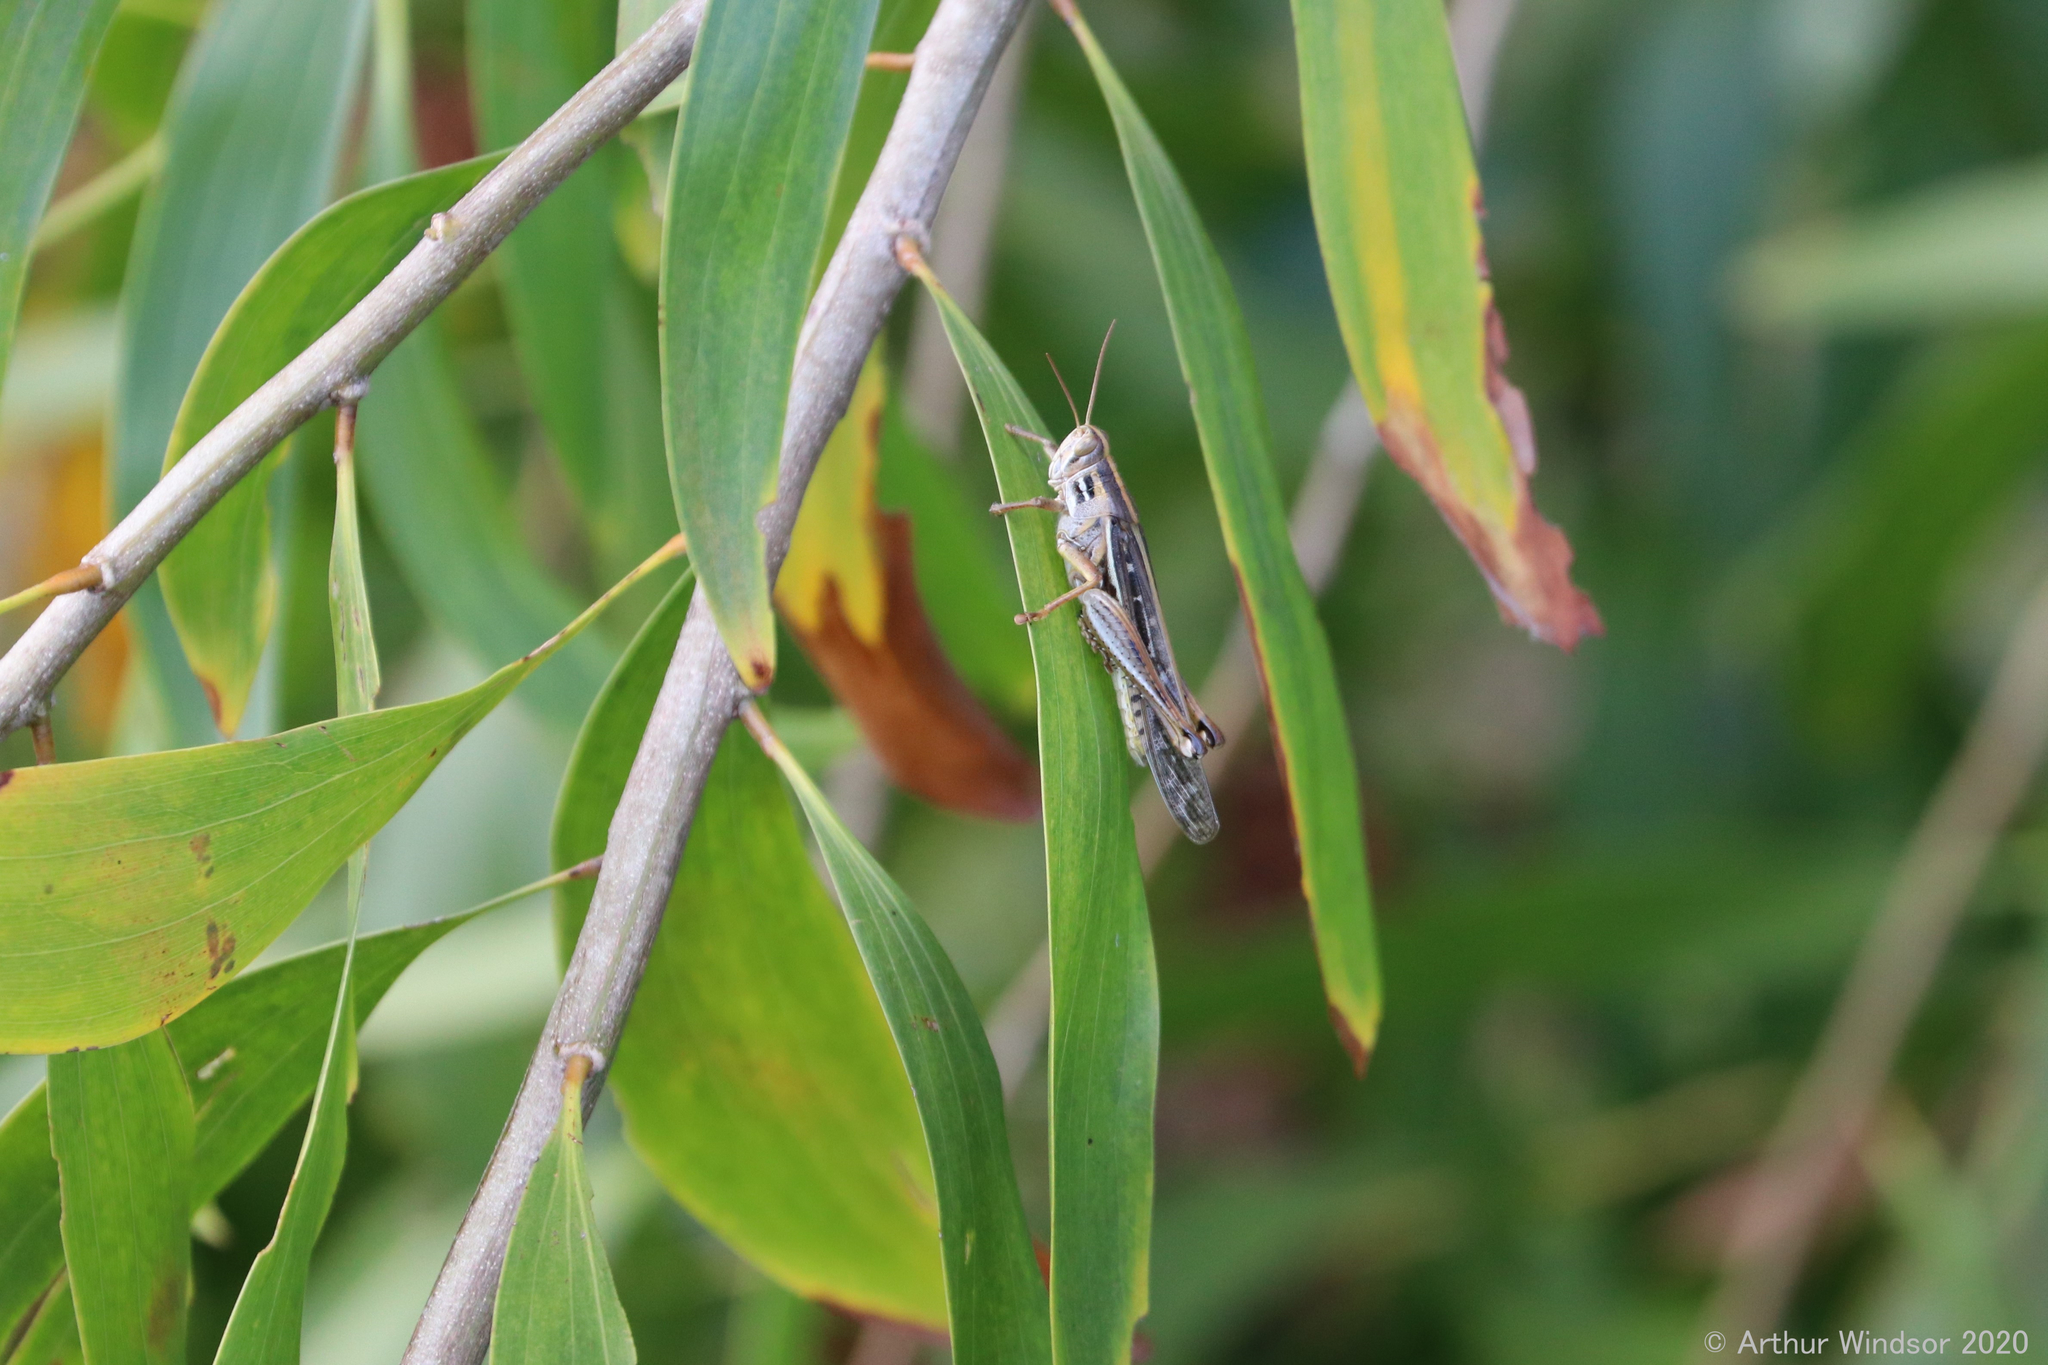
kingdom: Animalia
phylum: Arthropoda
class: Insecta
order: Orthoptera
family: Acrididae
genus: Schistocerca
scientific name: Schistocerca serialis
